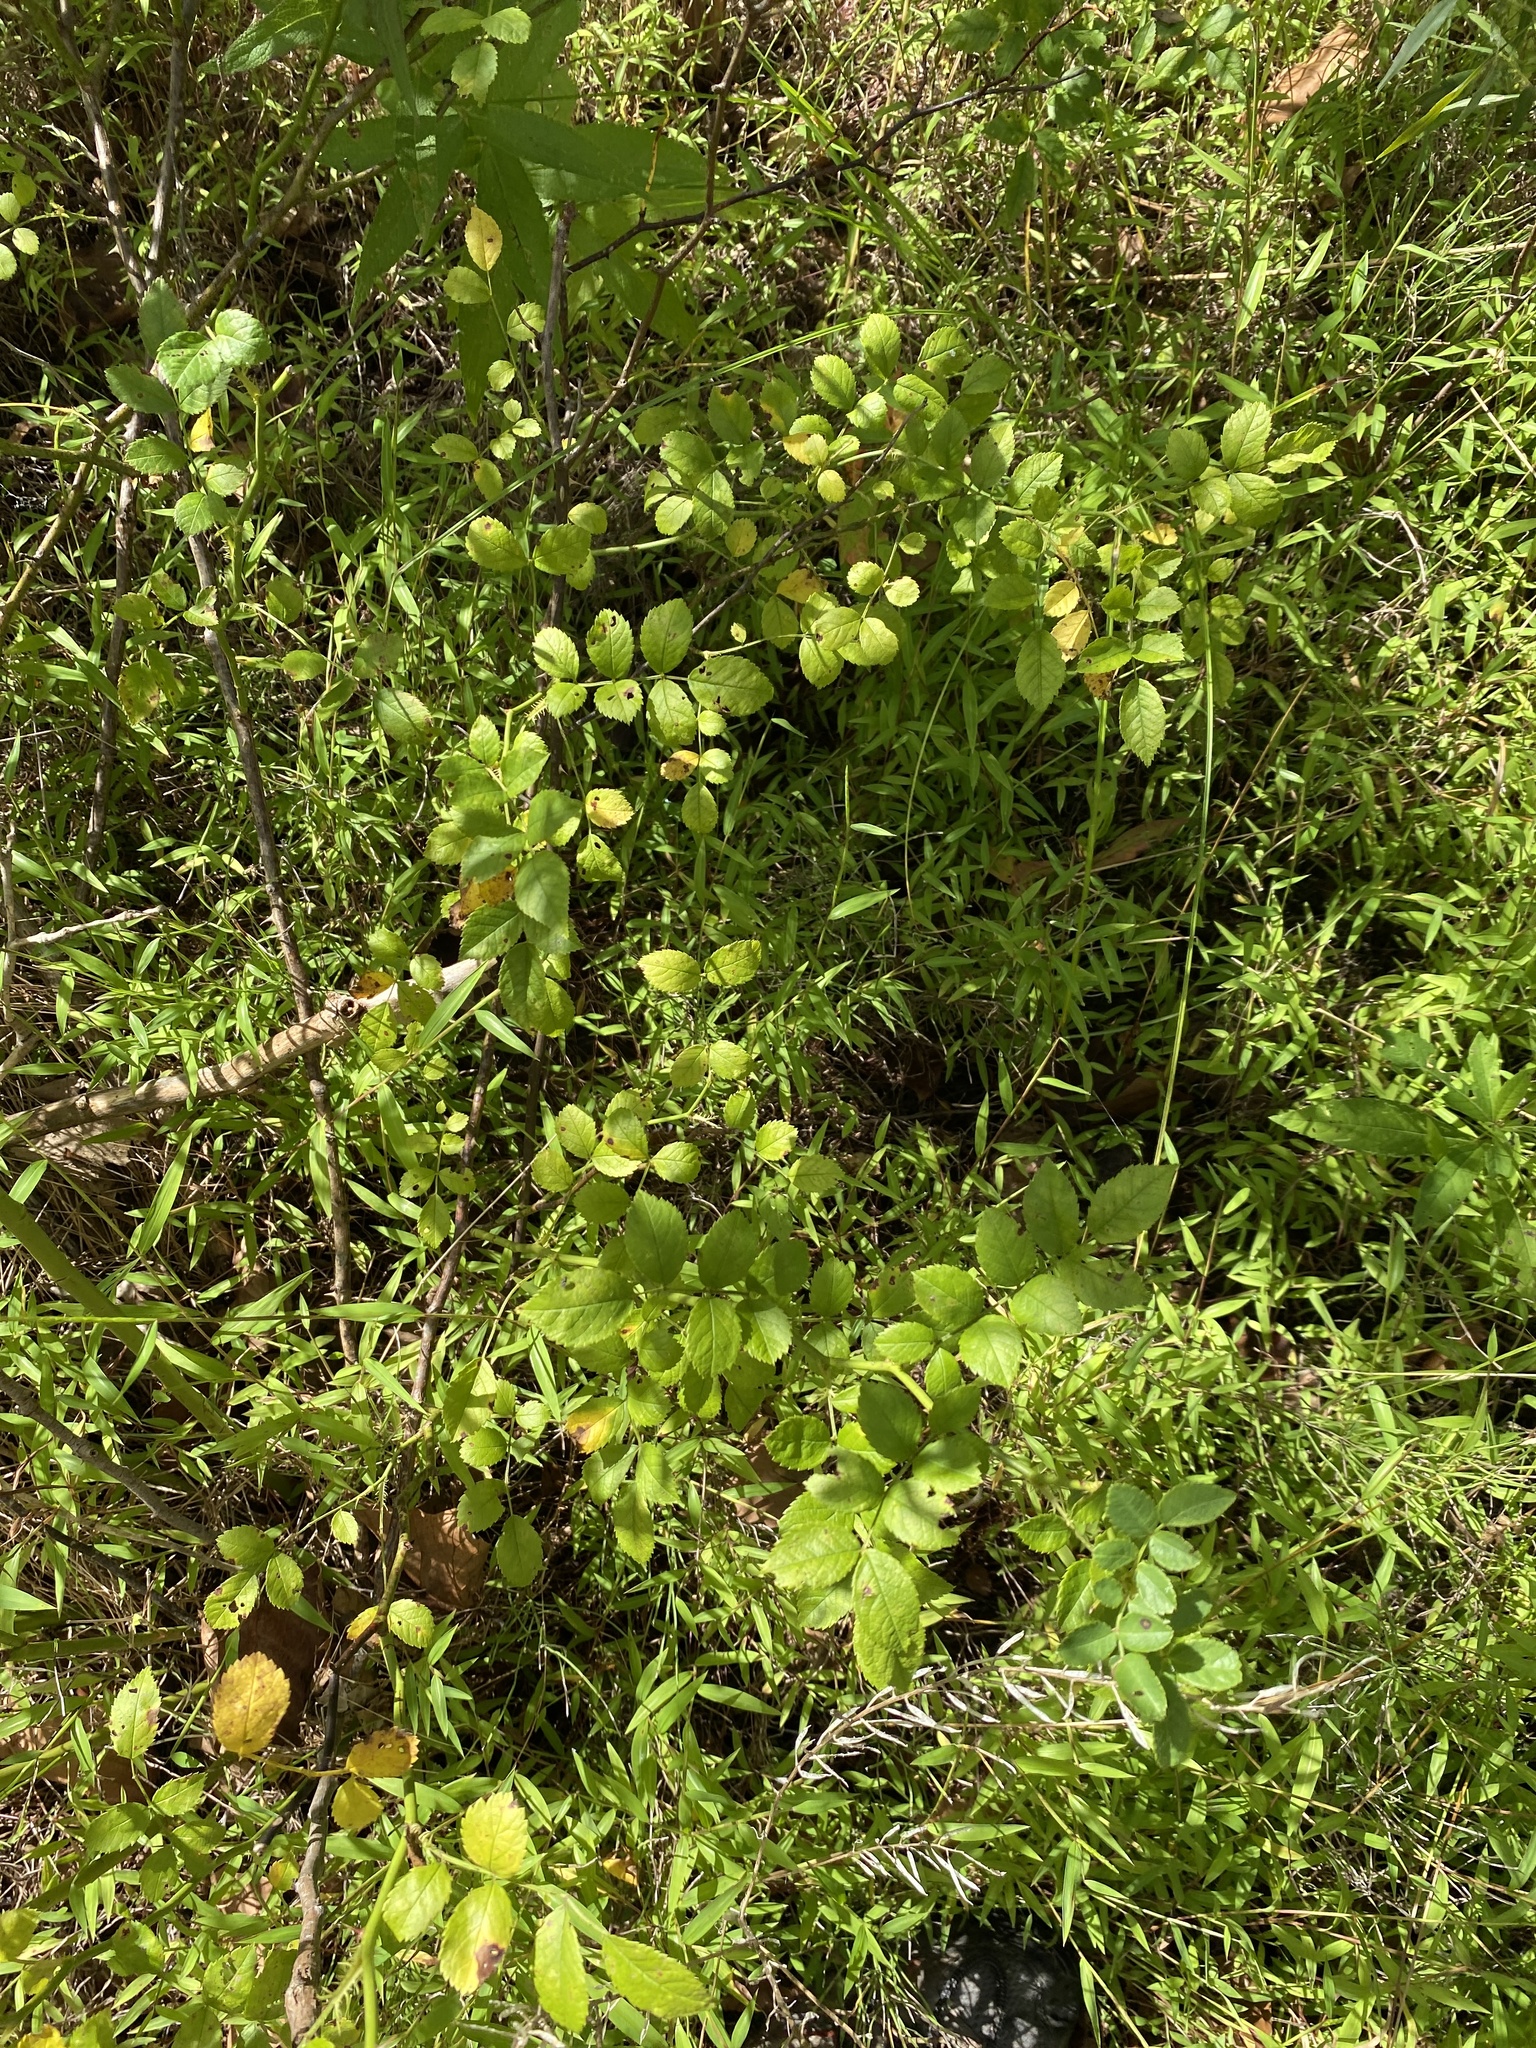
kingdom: Plantae
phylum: Tracheophyta
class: Magnoliopsida
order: Rosales
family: Rosaceae
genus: Rosa
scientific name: Rosa multiflora
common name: Multiflora rose
